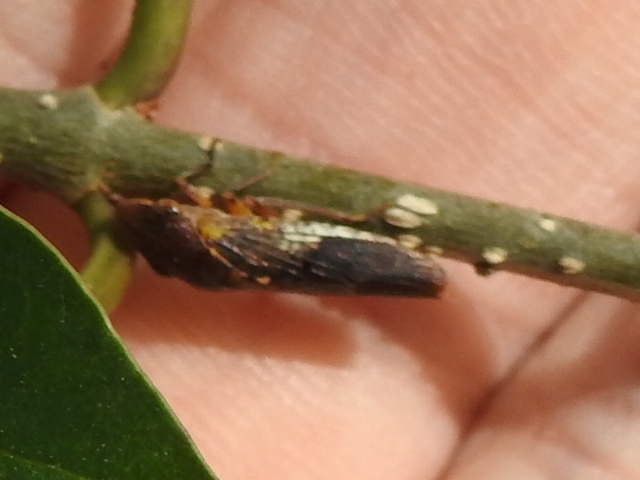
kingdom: Animalia
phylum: Arthropoda
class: Insecta
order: Hemiptera
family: Cicadellidae
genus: Homalodisca
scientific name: Homalodisca vitripennis
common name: Glassy-winged sharpshooter
